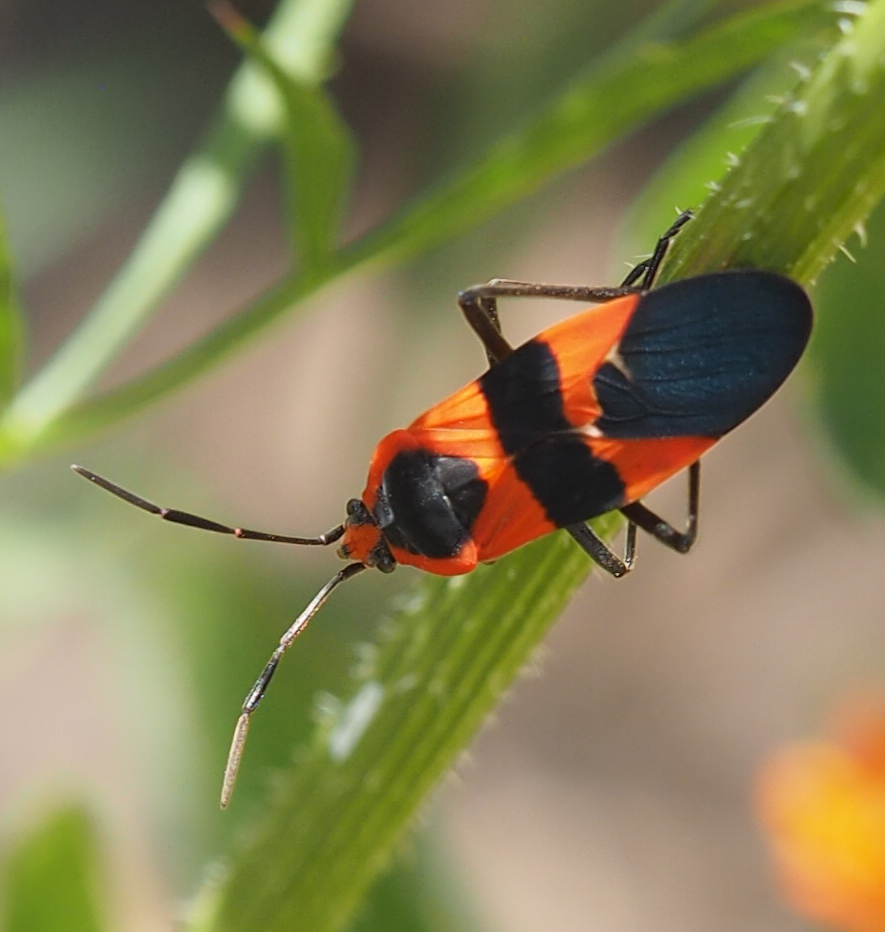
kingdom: Animalia
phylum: Arthropoda
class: Insecta
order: Hemiptera
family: Lygaeidae
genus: Oncopeltus
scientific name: Oncopeltus fasciatus
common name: Large milkweed bug
